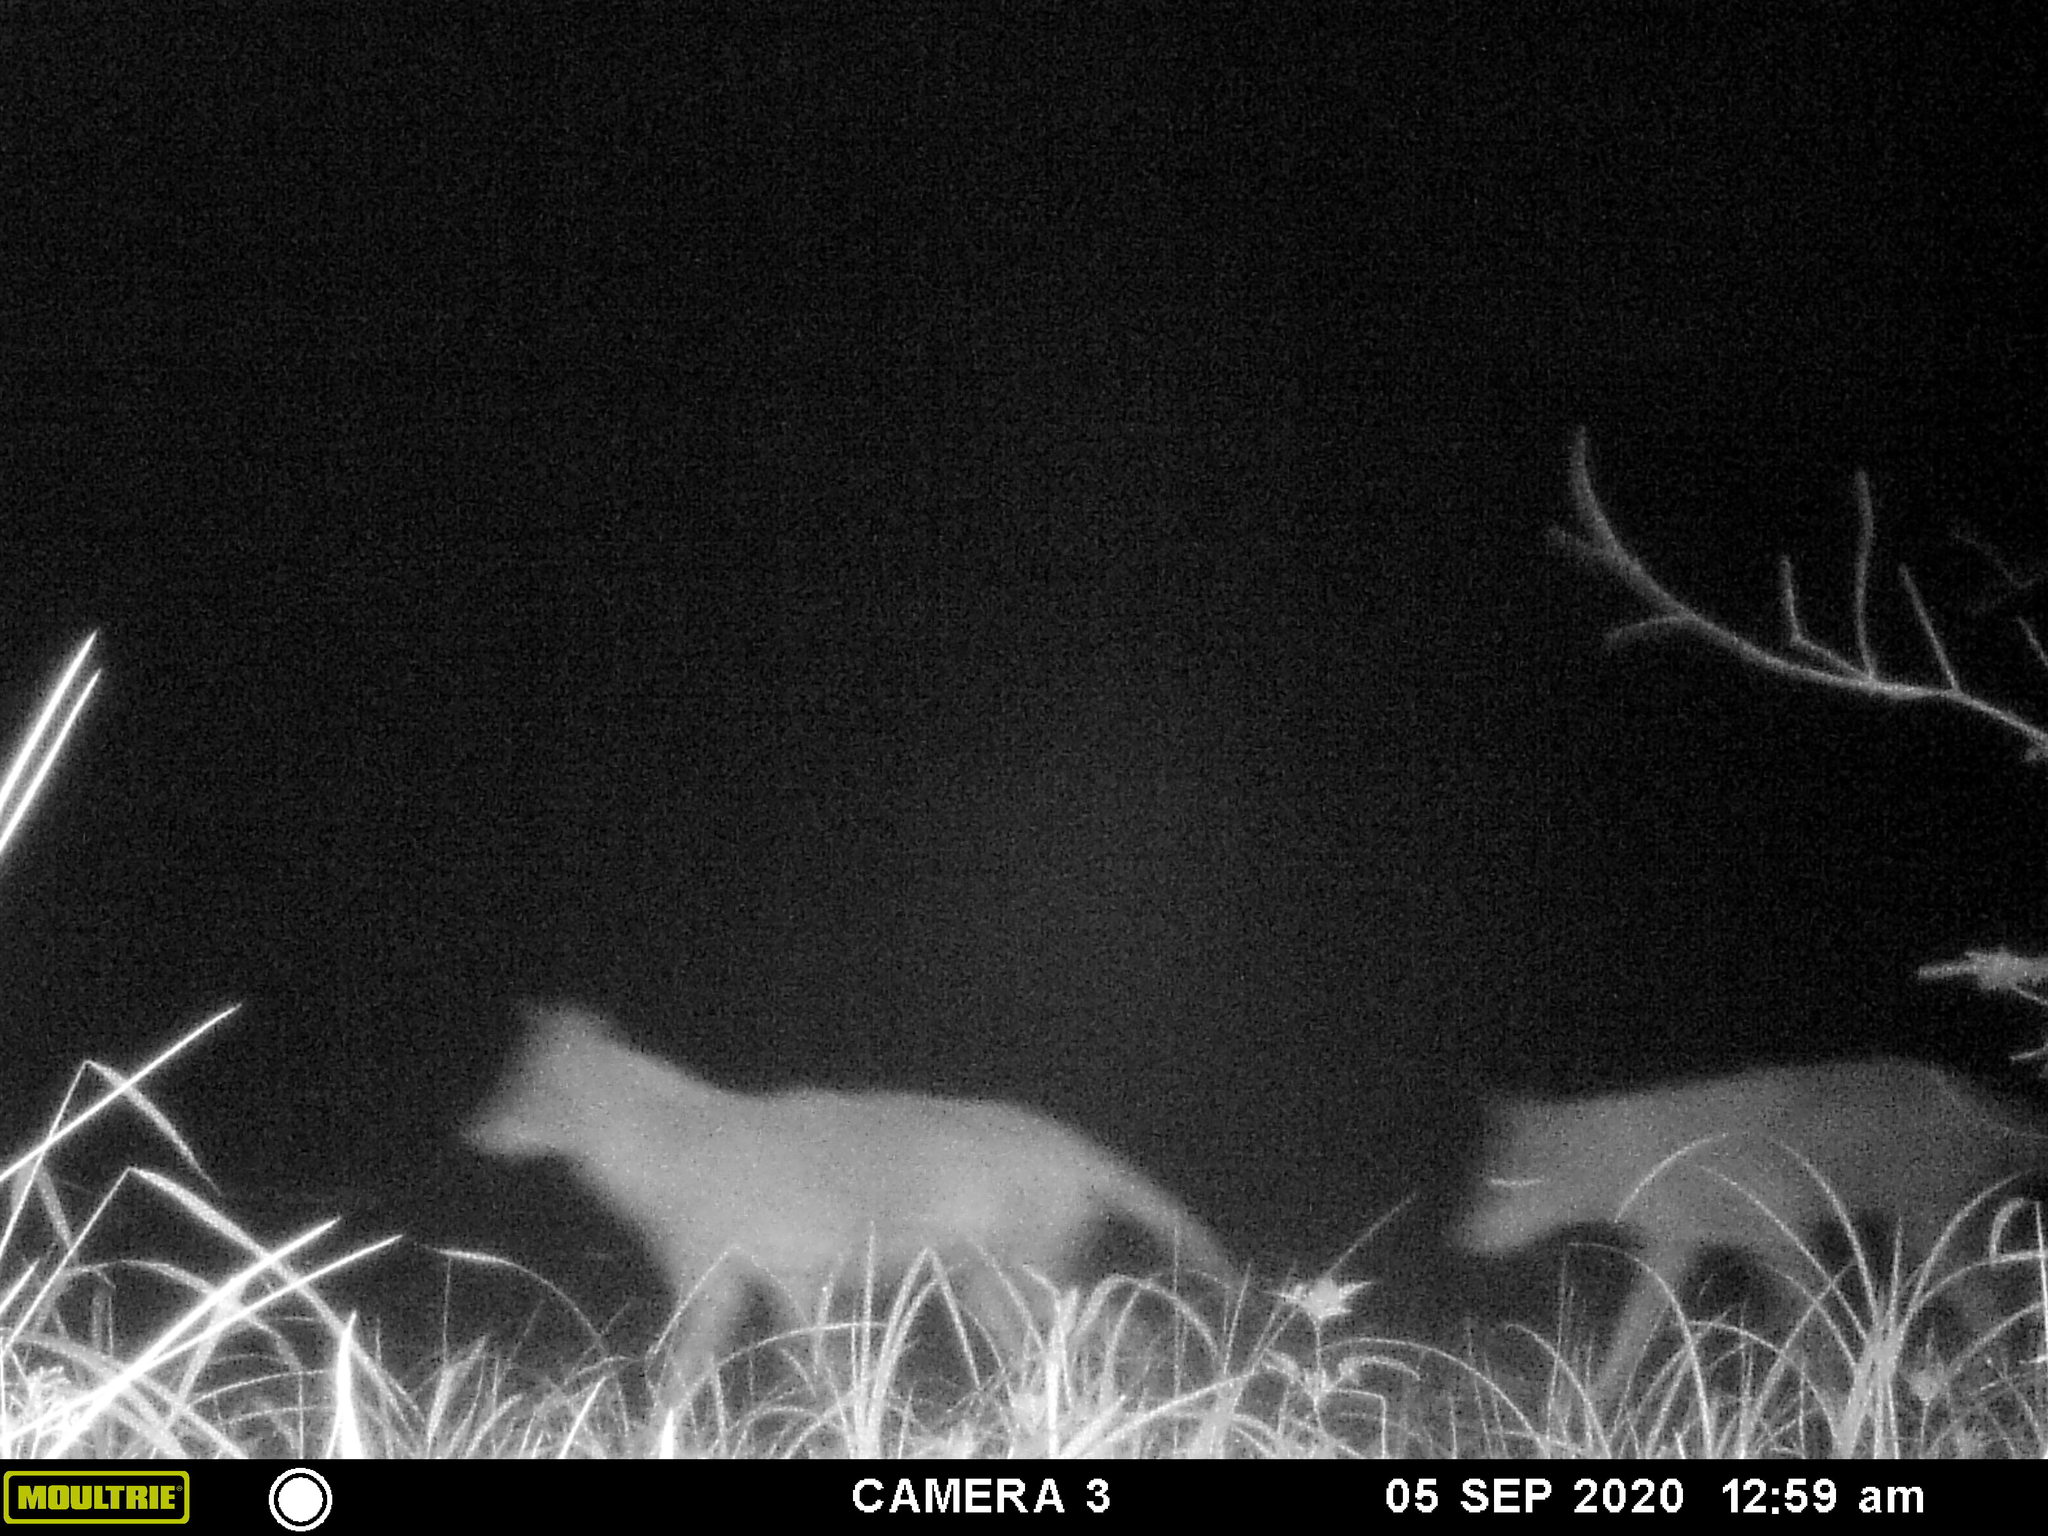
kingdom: Animalia
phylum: Chordata
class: Mammalia
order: Carnivora
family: Canidae
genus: Canis
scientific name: Canis latrans
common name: Coyote
